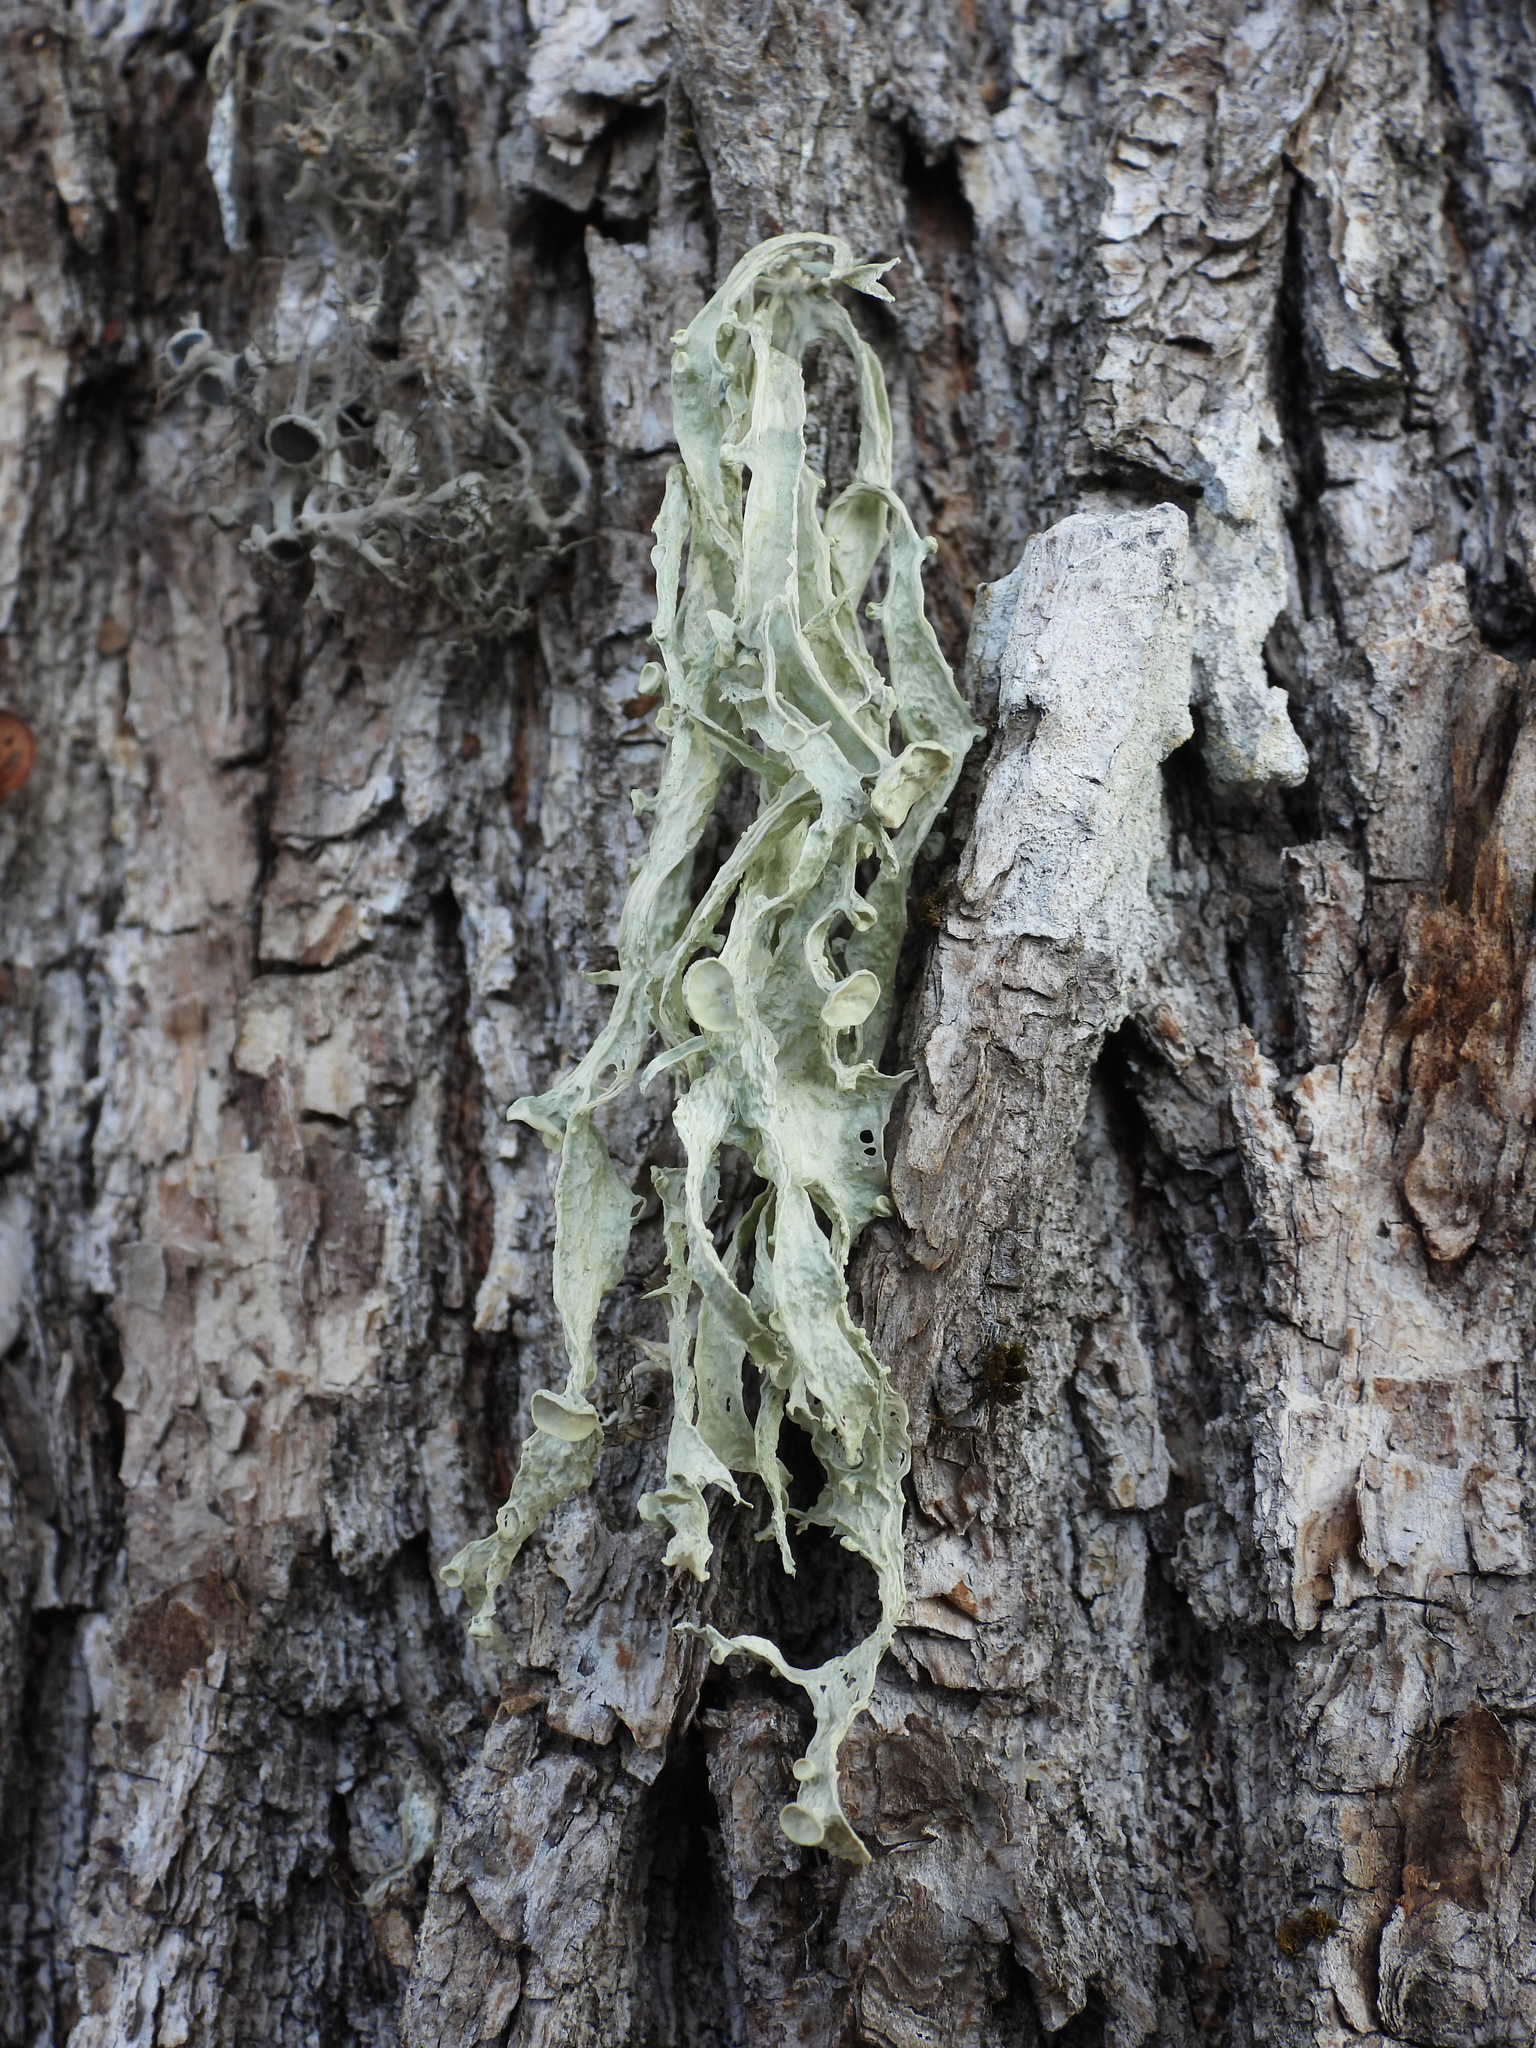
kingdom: Fungi
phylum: Ascomycota
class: Lecanoromycetes
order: Lecanorales
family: Ramalinaceae
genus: Ramalina
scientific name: Ramalina fraxinea
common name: Cartilage lichen
